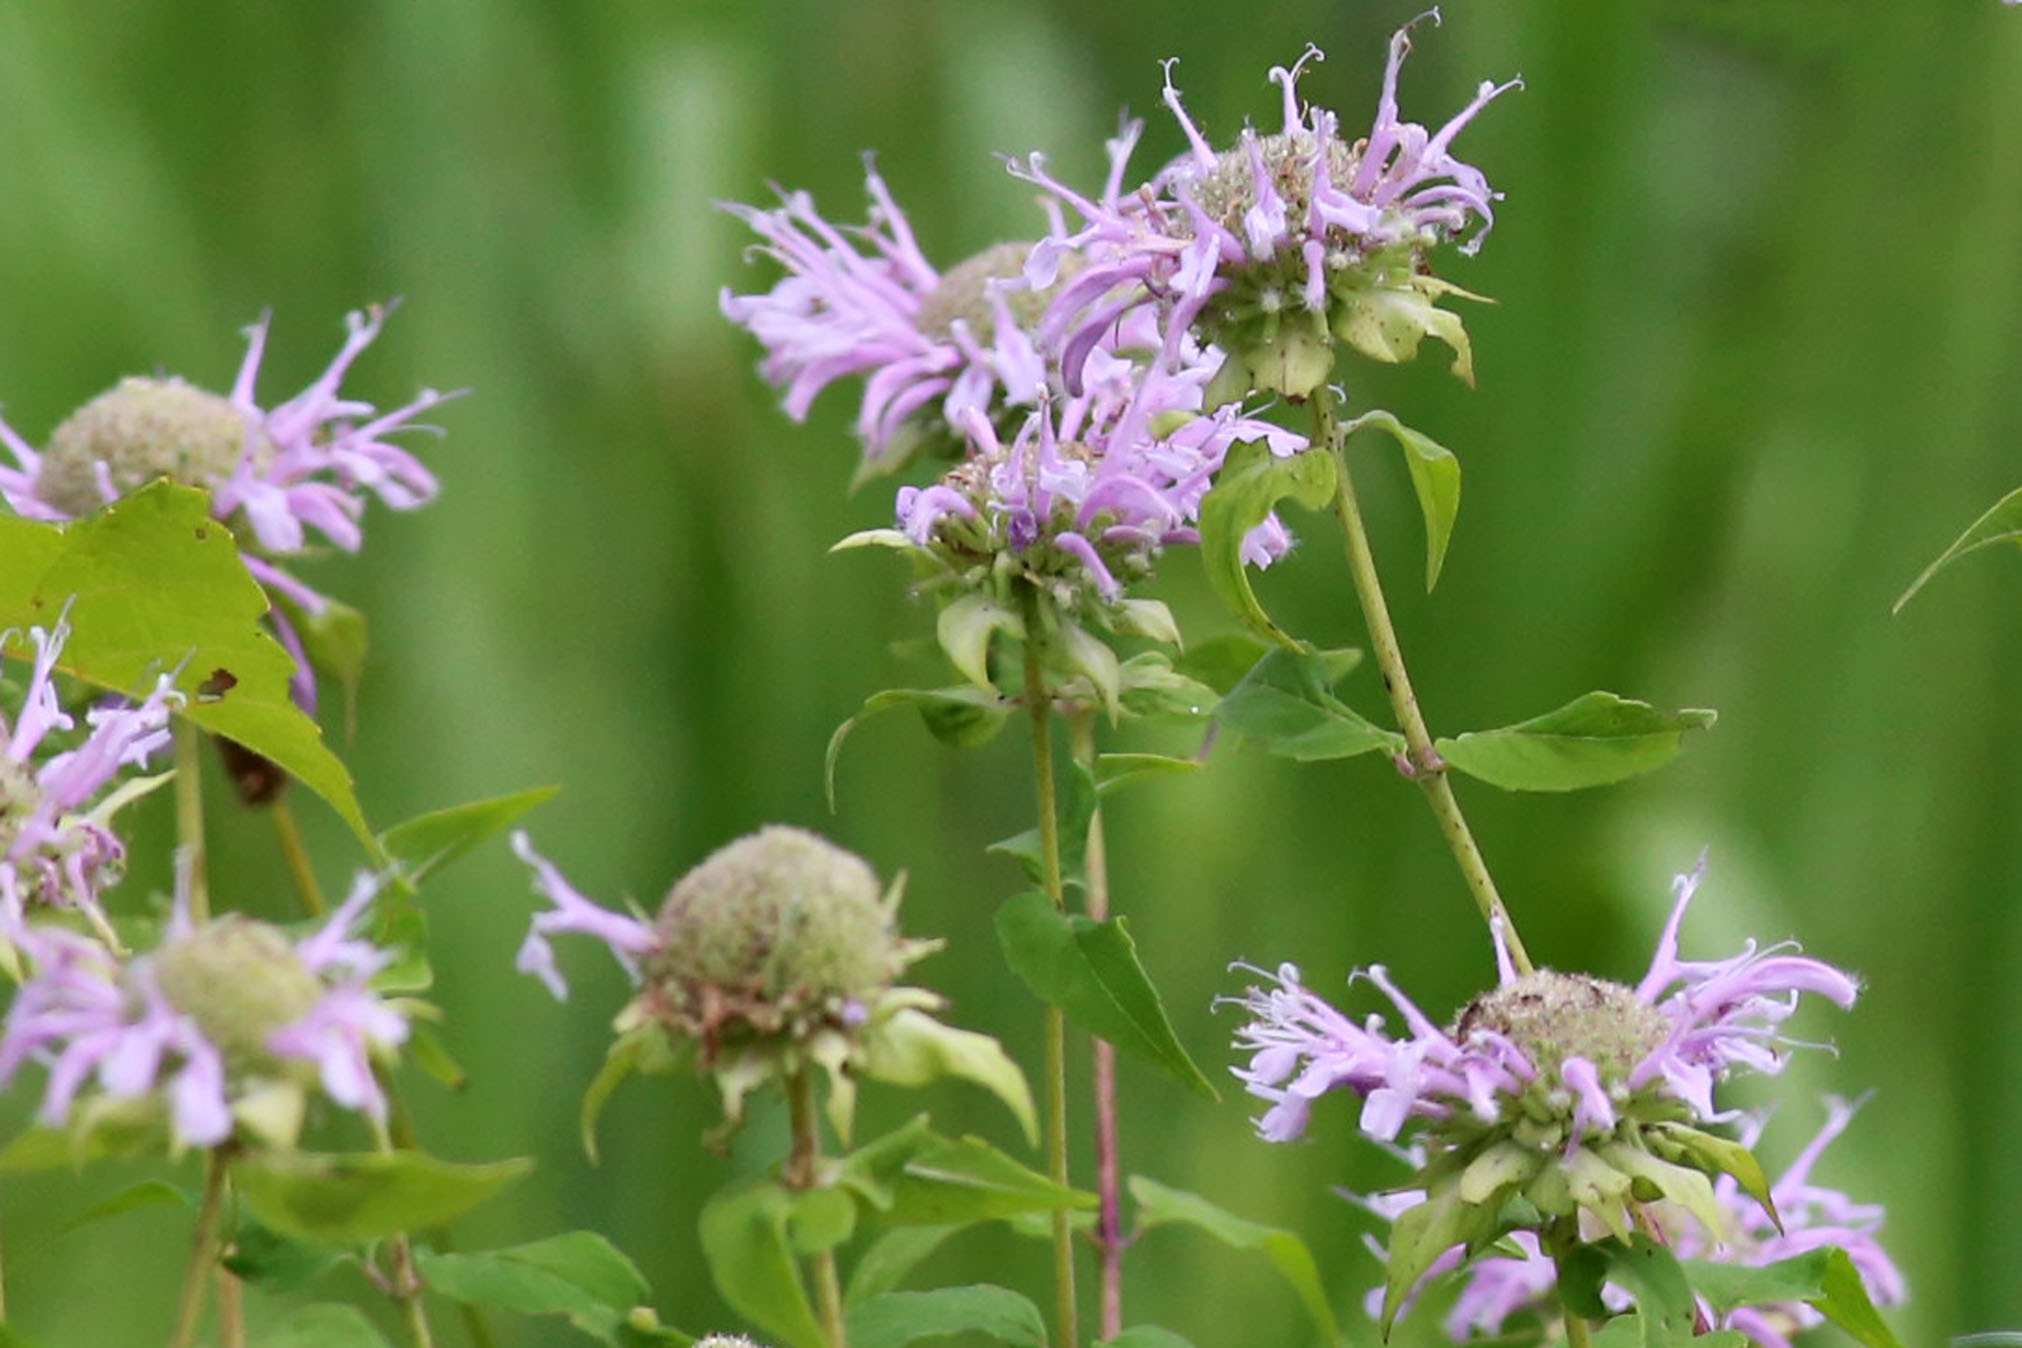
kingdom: Plantae
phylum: Tracheophyta
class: Magnoliopsida
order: Lamiales
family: Lamiaceae
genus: Monarda
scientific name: Monarda fistulosa
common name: Purple beebalm
